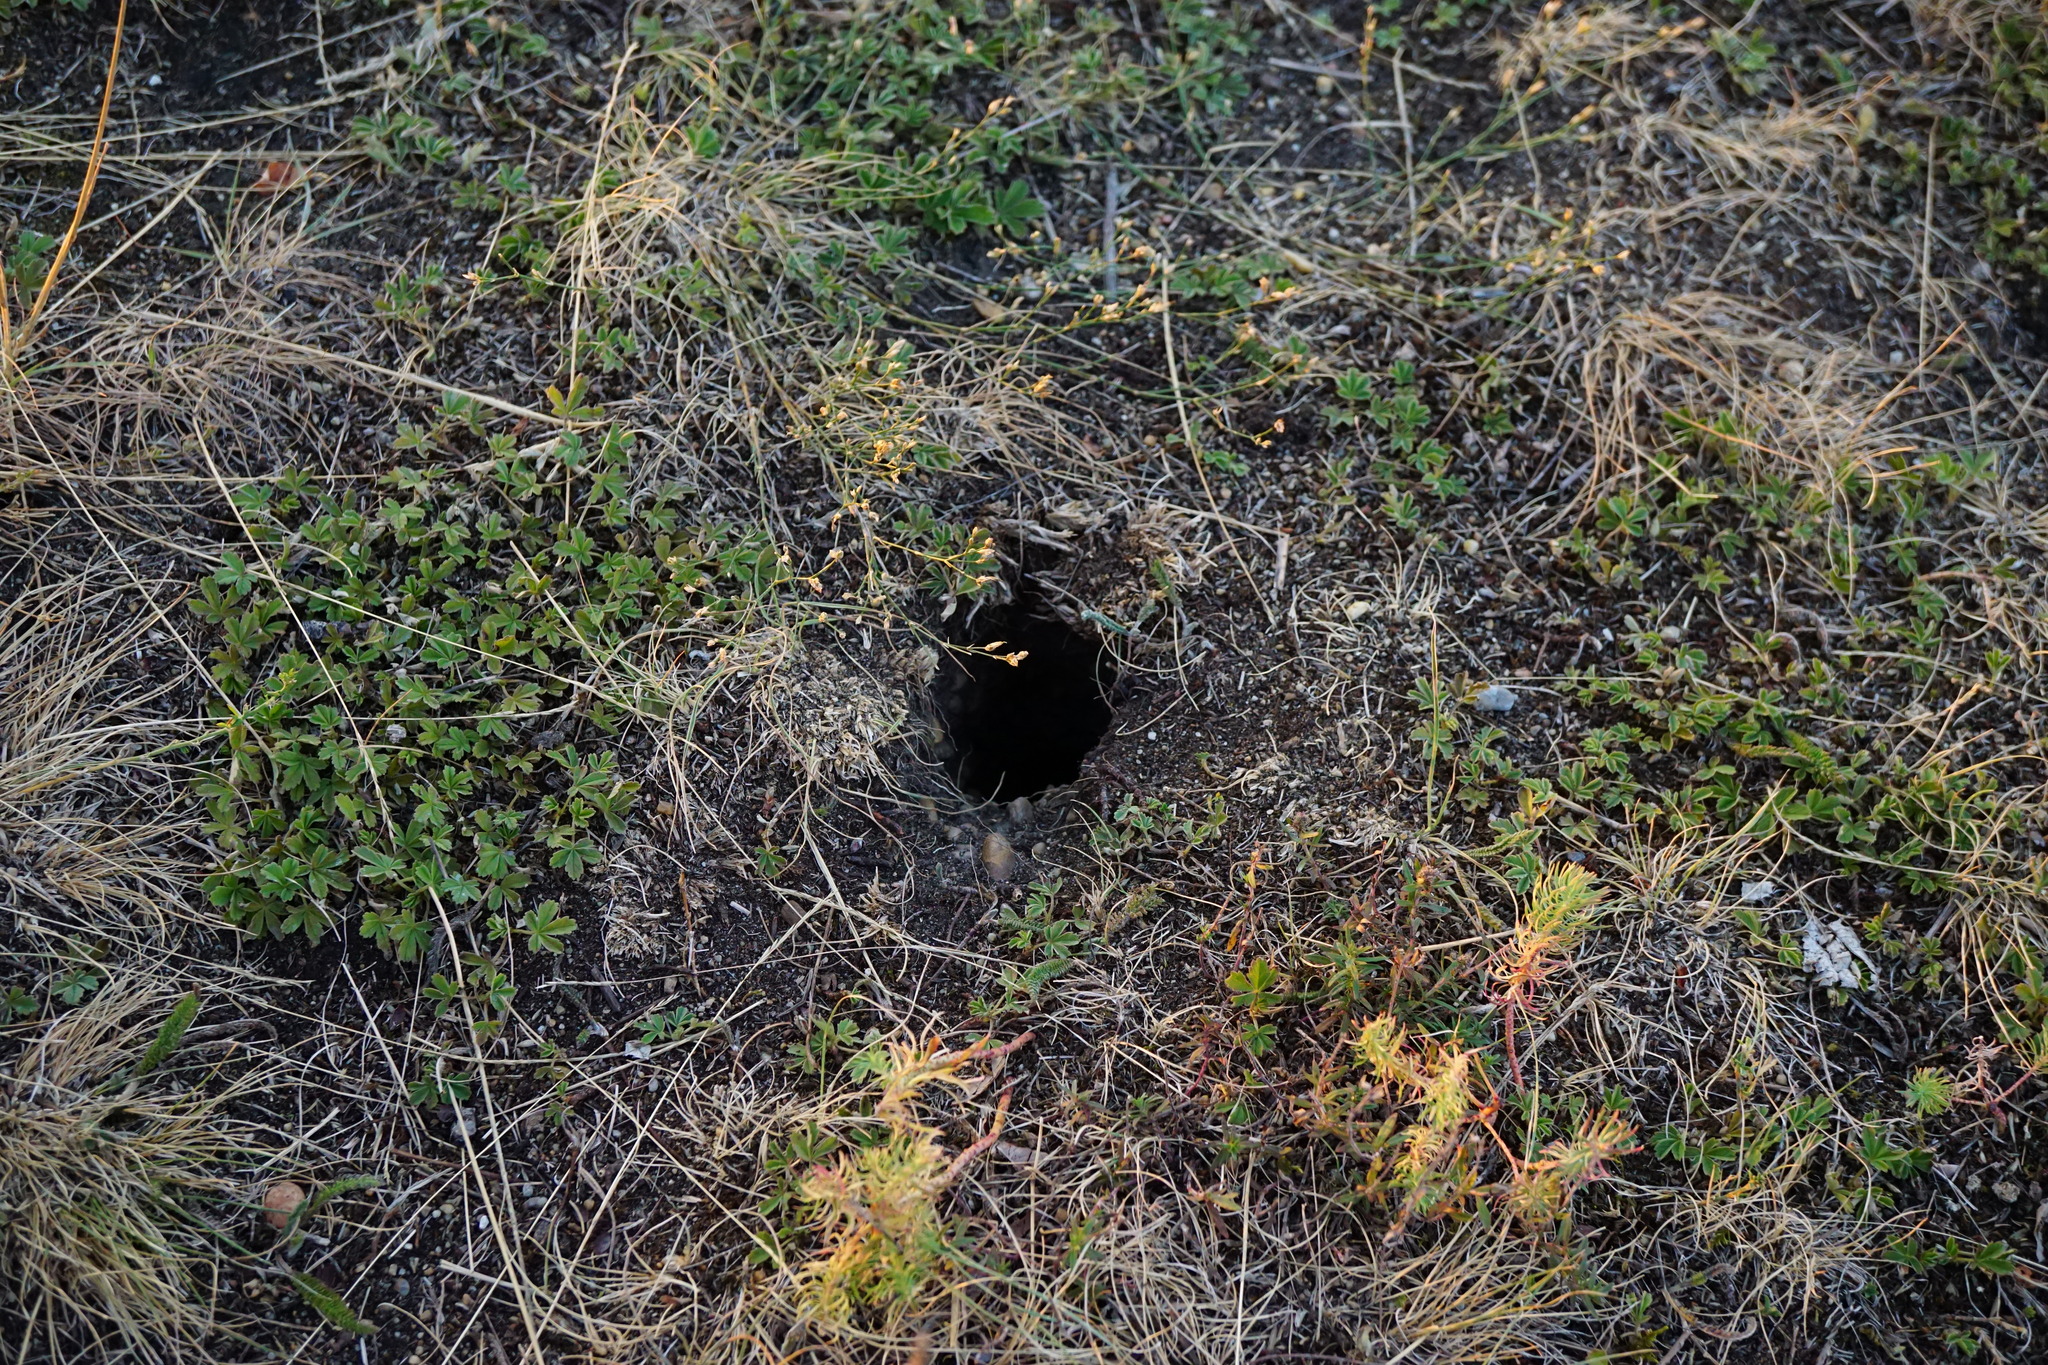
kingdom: Animalia
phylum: Chordata
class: Mammalia
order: Rodentia
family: Sciuridae
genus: Spermophilus
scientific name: Spermophilus citellus
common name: European ground squirrel
